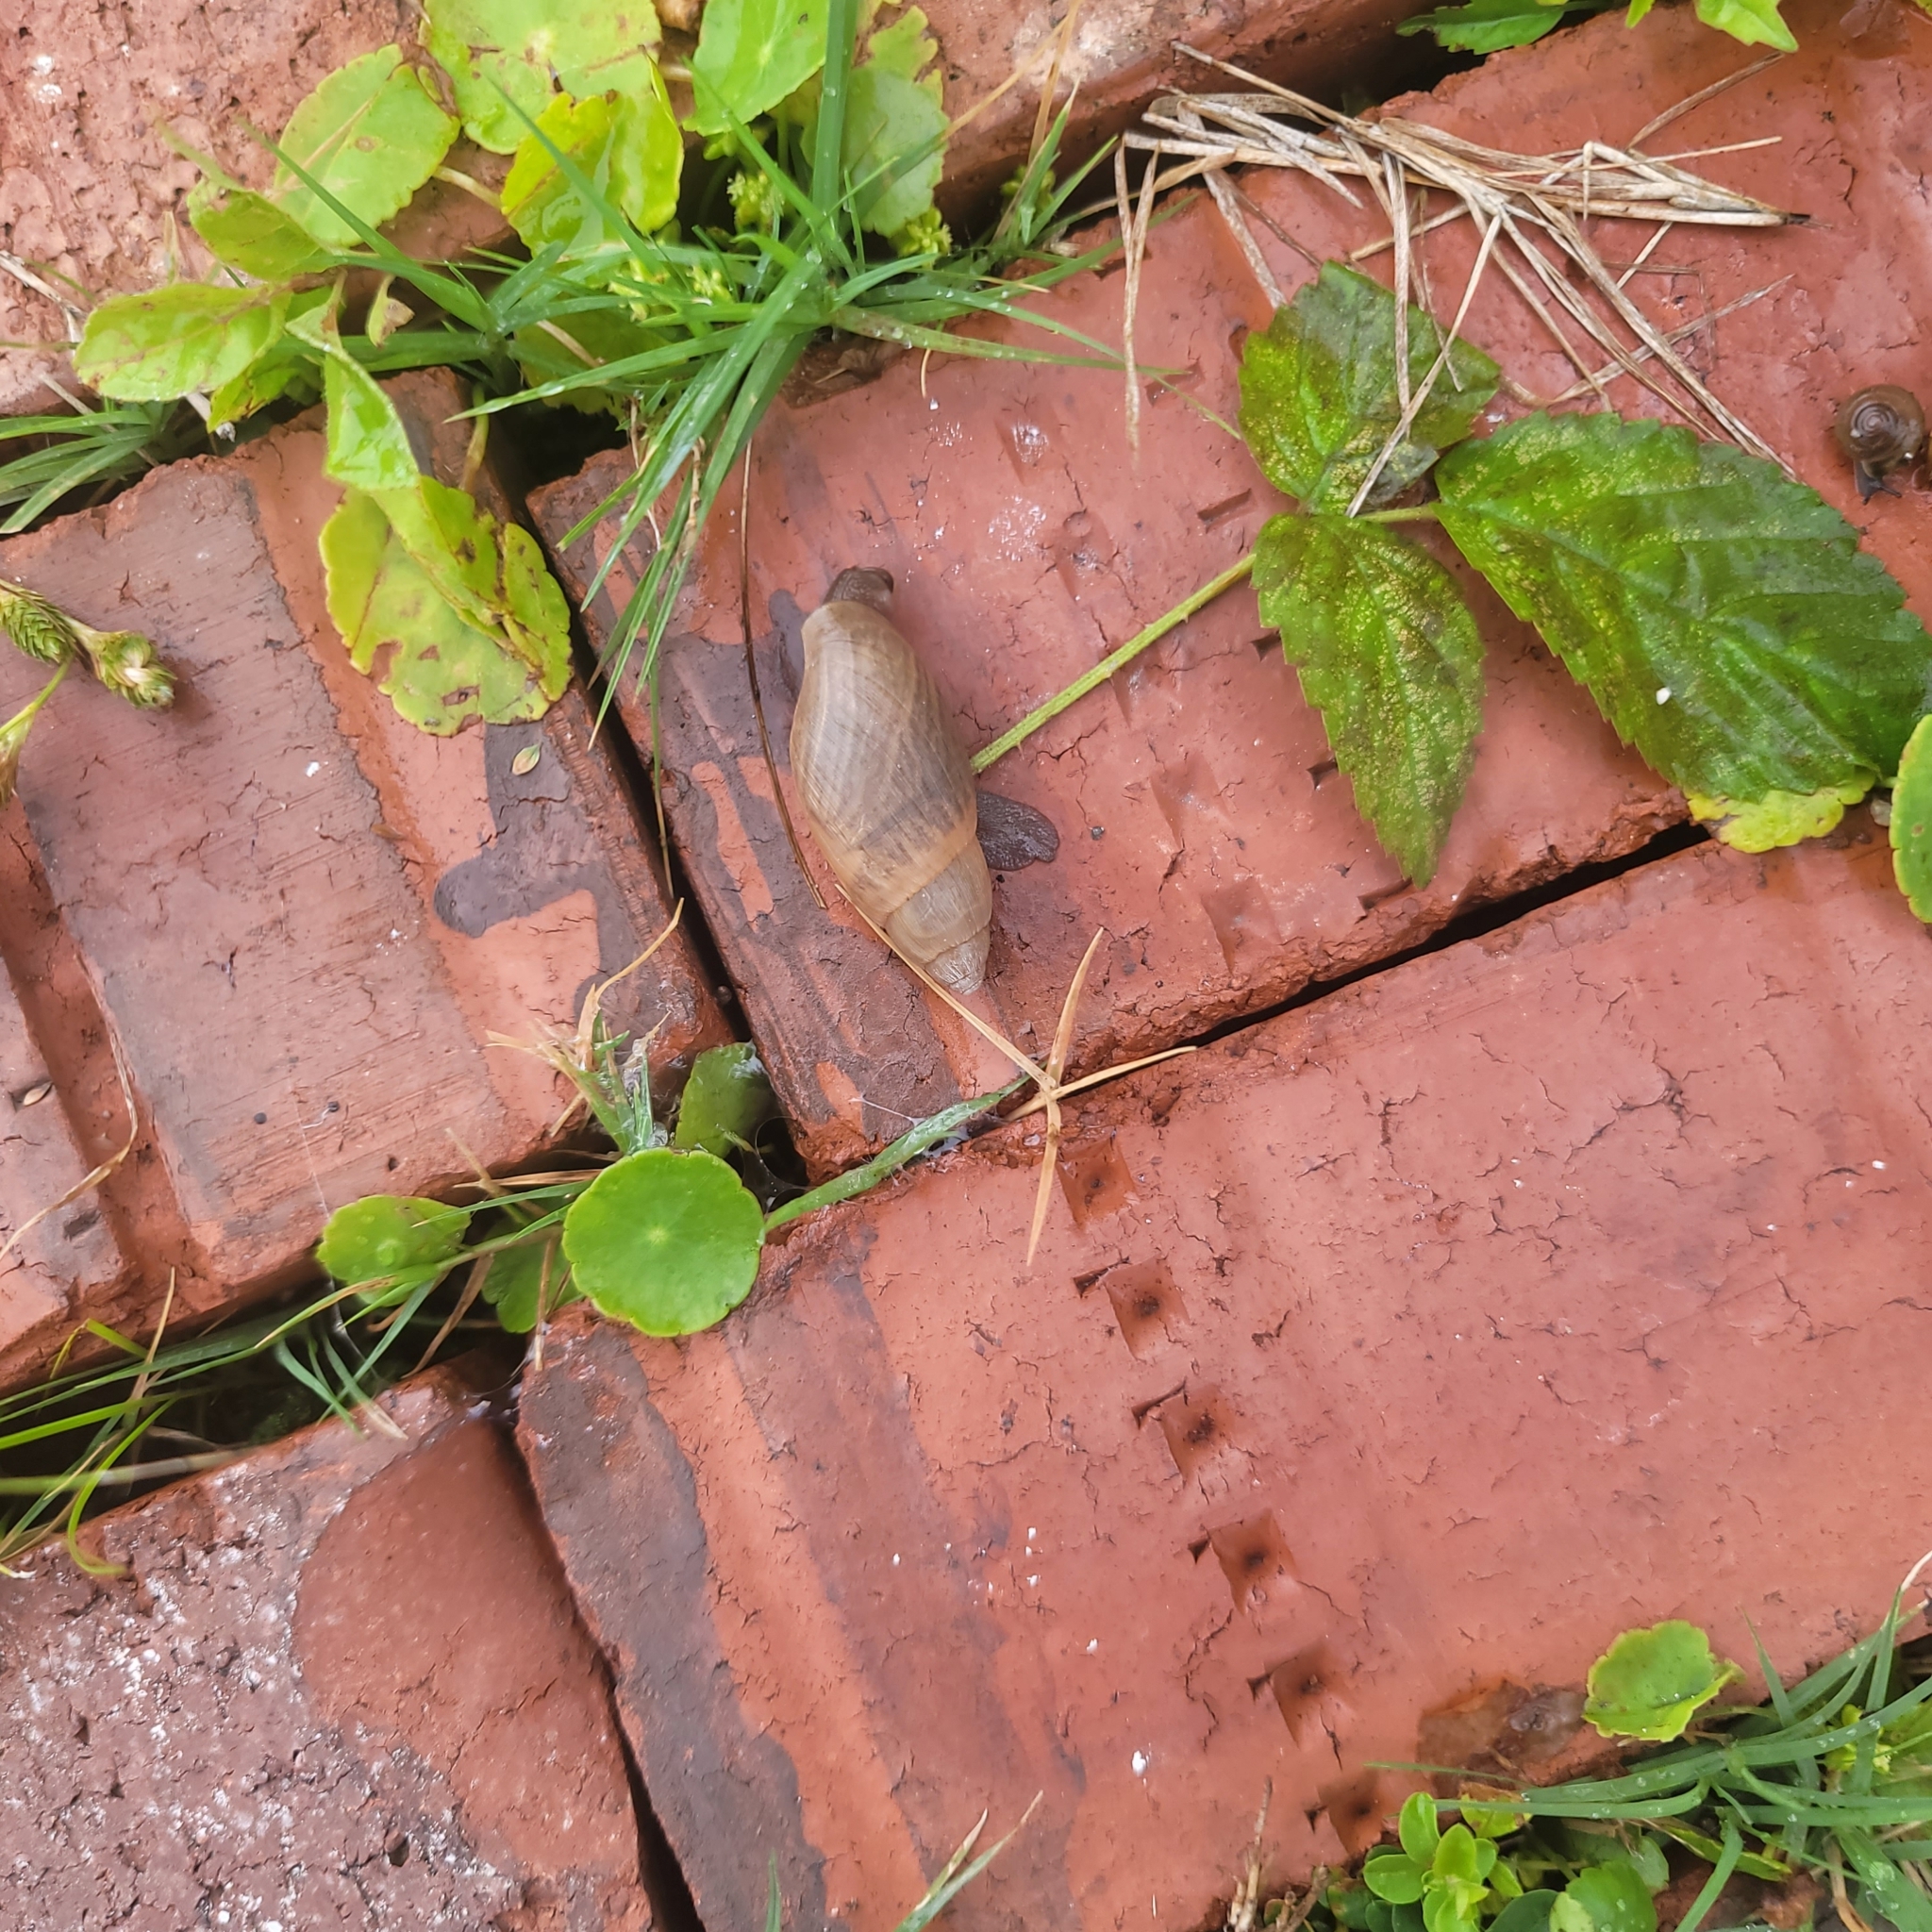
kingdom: Animalia
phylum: Mollusca
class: Gastropoda
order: Stylommatophora
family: Spiraxidae
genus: Euglandina
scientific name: Euglandina rosea
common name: Rosy wolfsnail
